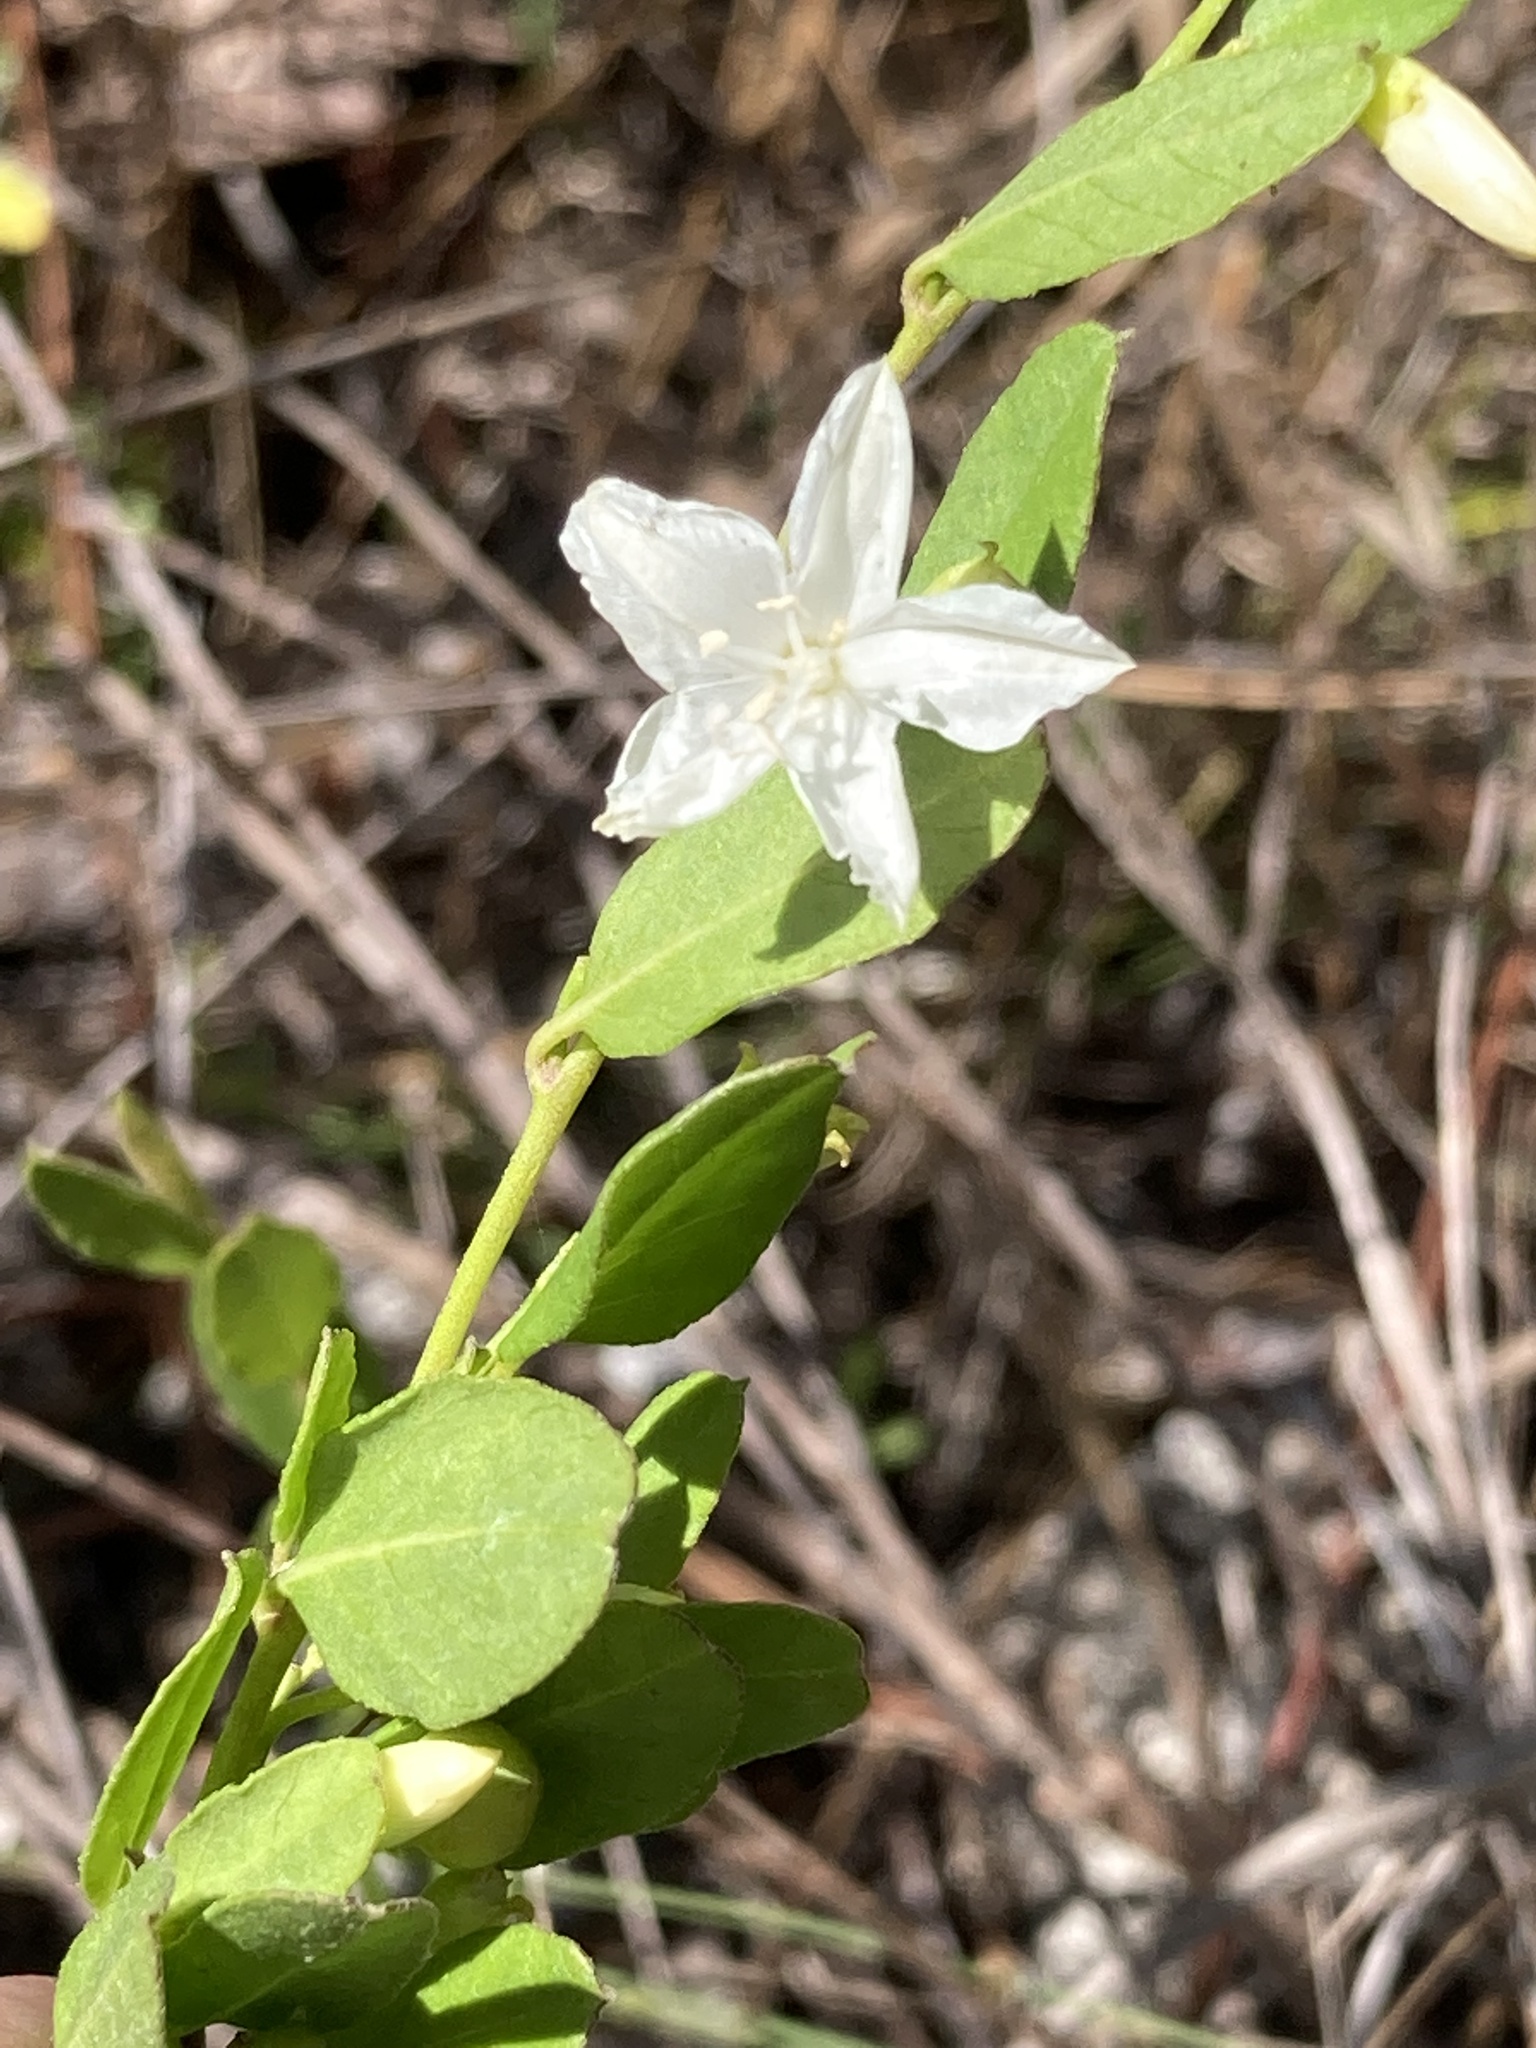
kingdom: Plantae
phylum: Tracheophyta
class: Magnoliopsida
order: Solanales
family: Convolvulaceae
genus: Jacquemontia
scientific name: Jacquemontia curtissii
